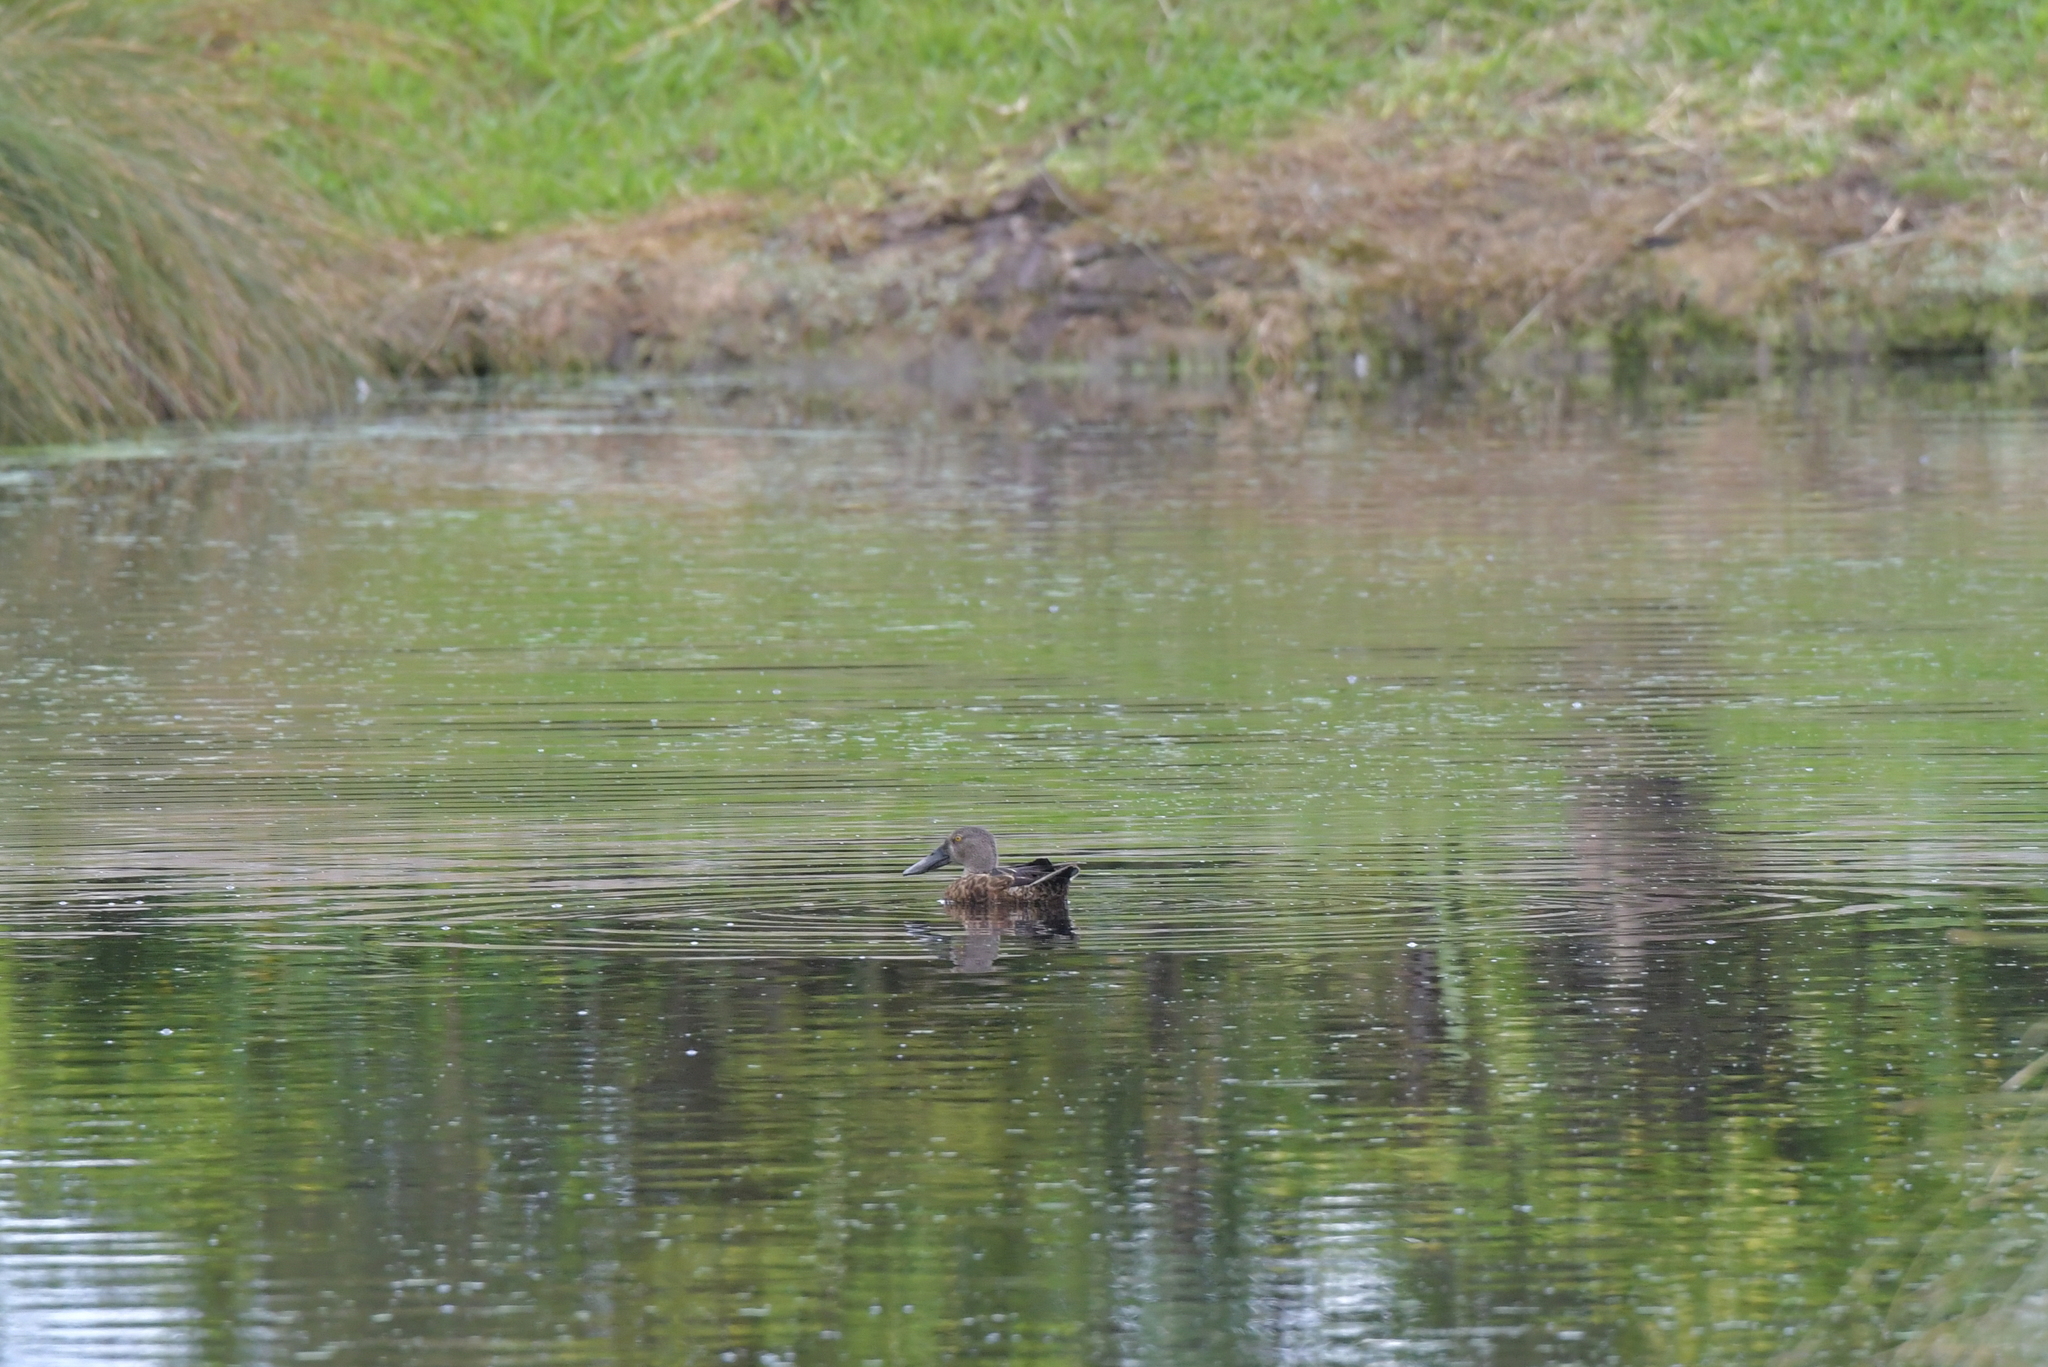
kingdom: Animalia
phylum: Chordata
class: Aves
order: Anseriformes
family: Anatidae
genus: Spatula
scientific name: Spatula rhynchotis
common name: Australian shoveler
